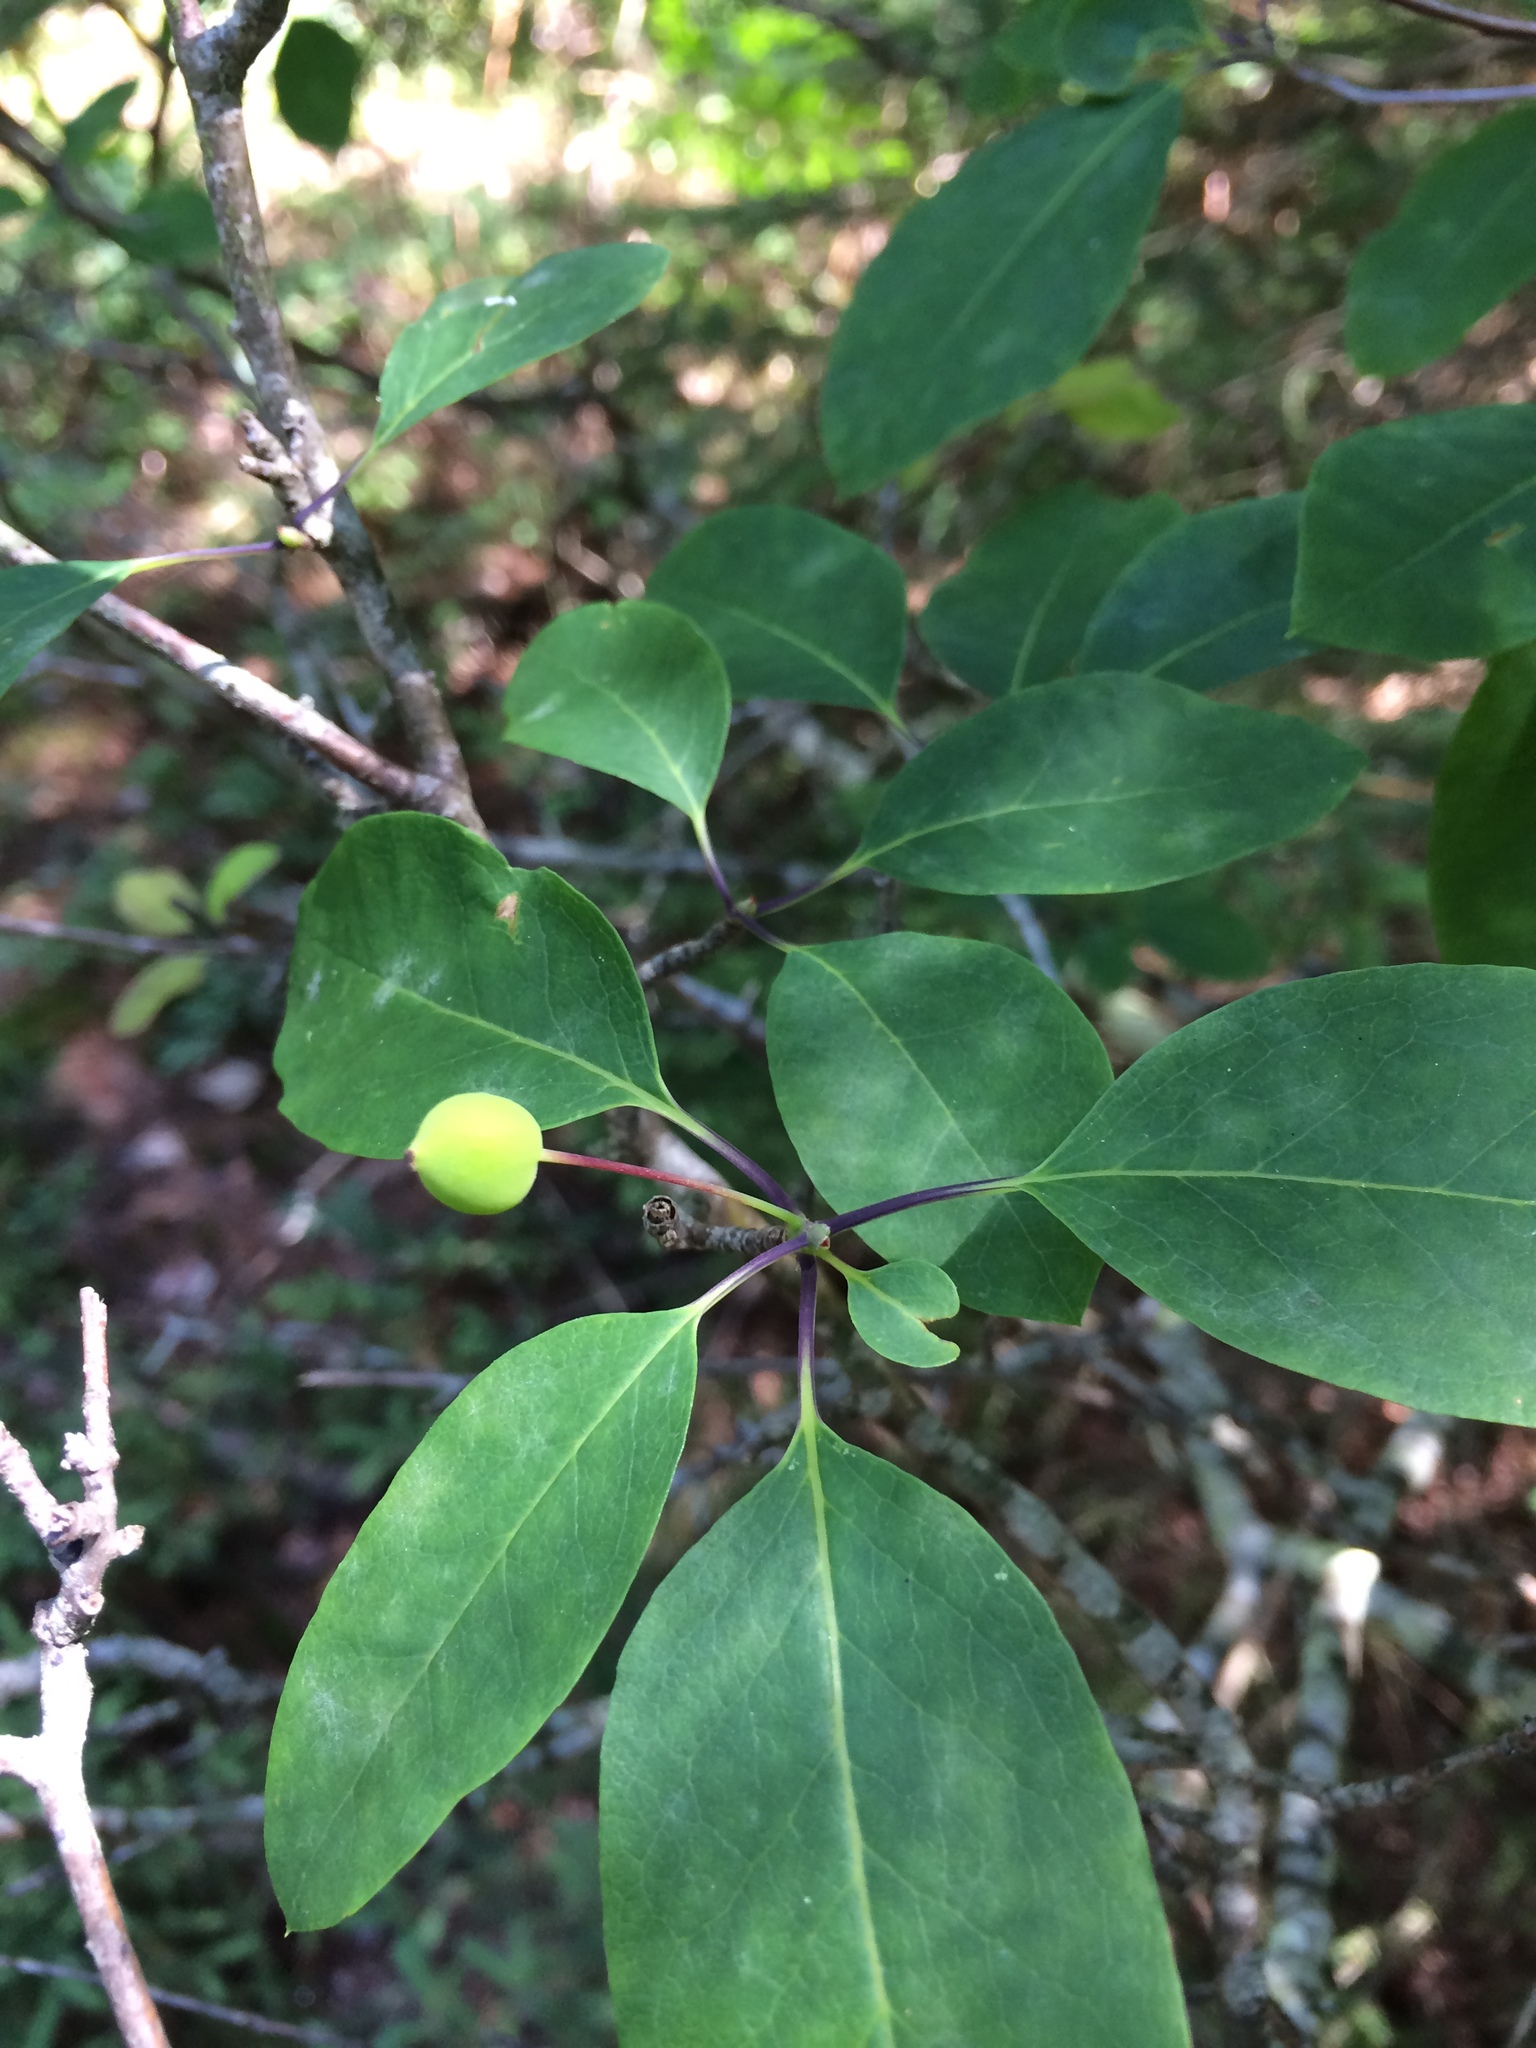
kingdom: Plantae
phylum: Tracheophyta
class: Magnoliopsida
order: Aquifoliales
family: Aquifoliaceae
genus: Ilex
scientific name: Ilex mucronata
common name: Catberry
